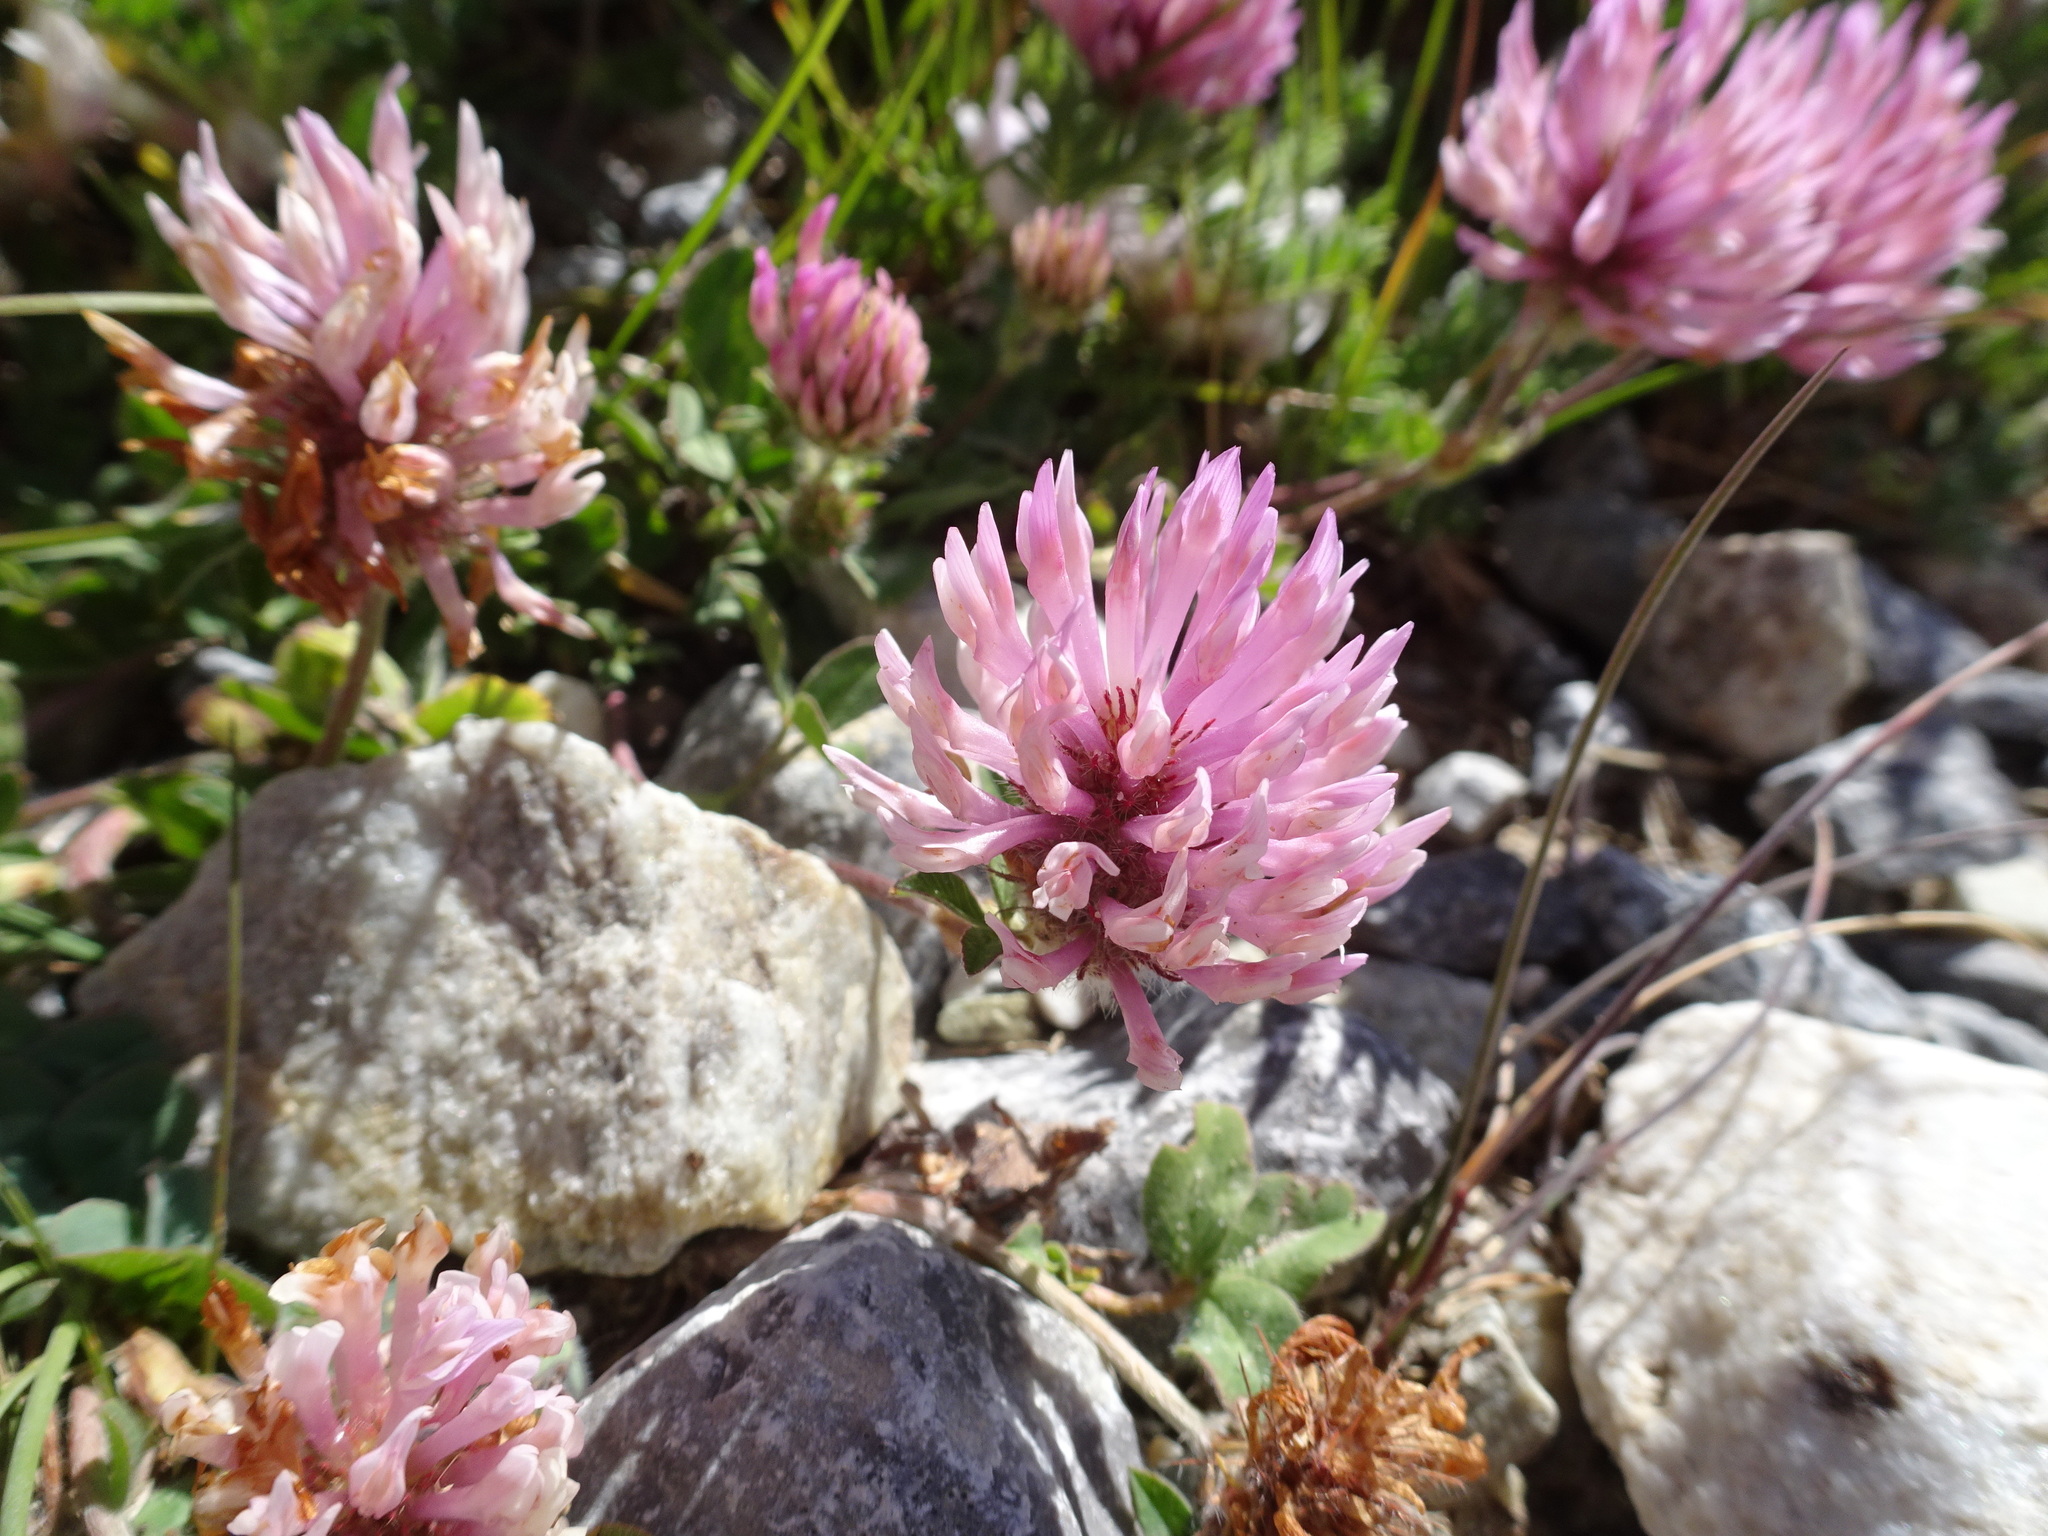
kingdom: Plantae
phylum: Tracheophyta
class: Magnoliopsida
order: Fabales
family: Fabaceae
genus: Trifolium
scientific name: Trifolium pratense
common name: Red clover
